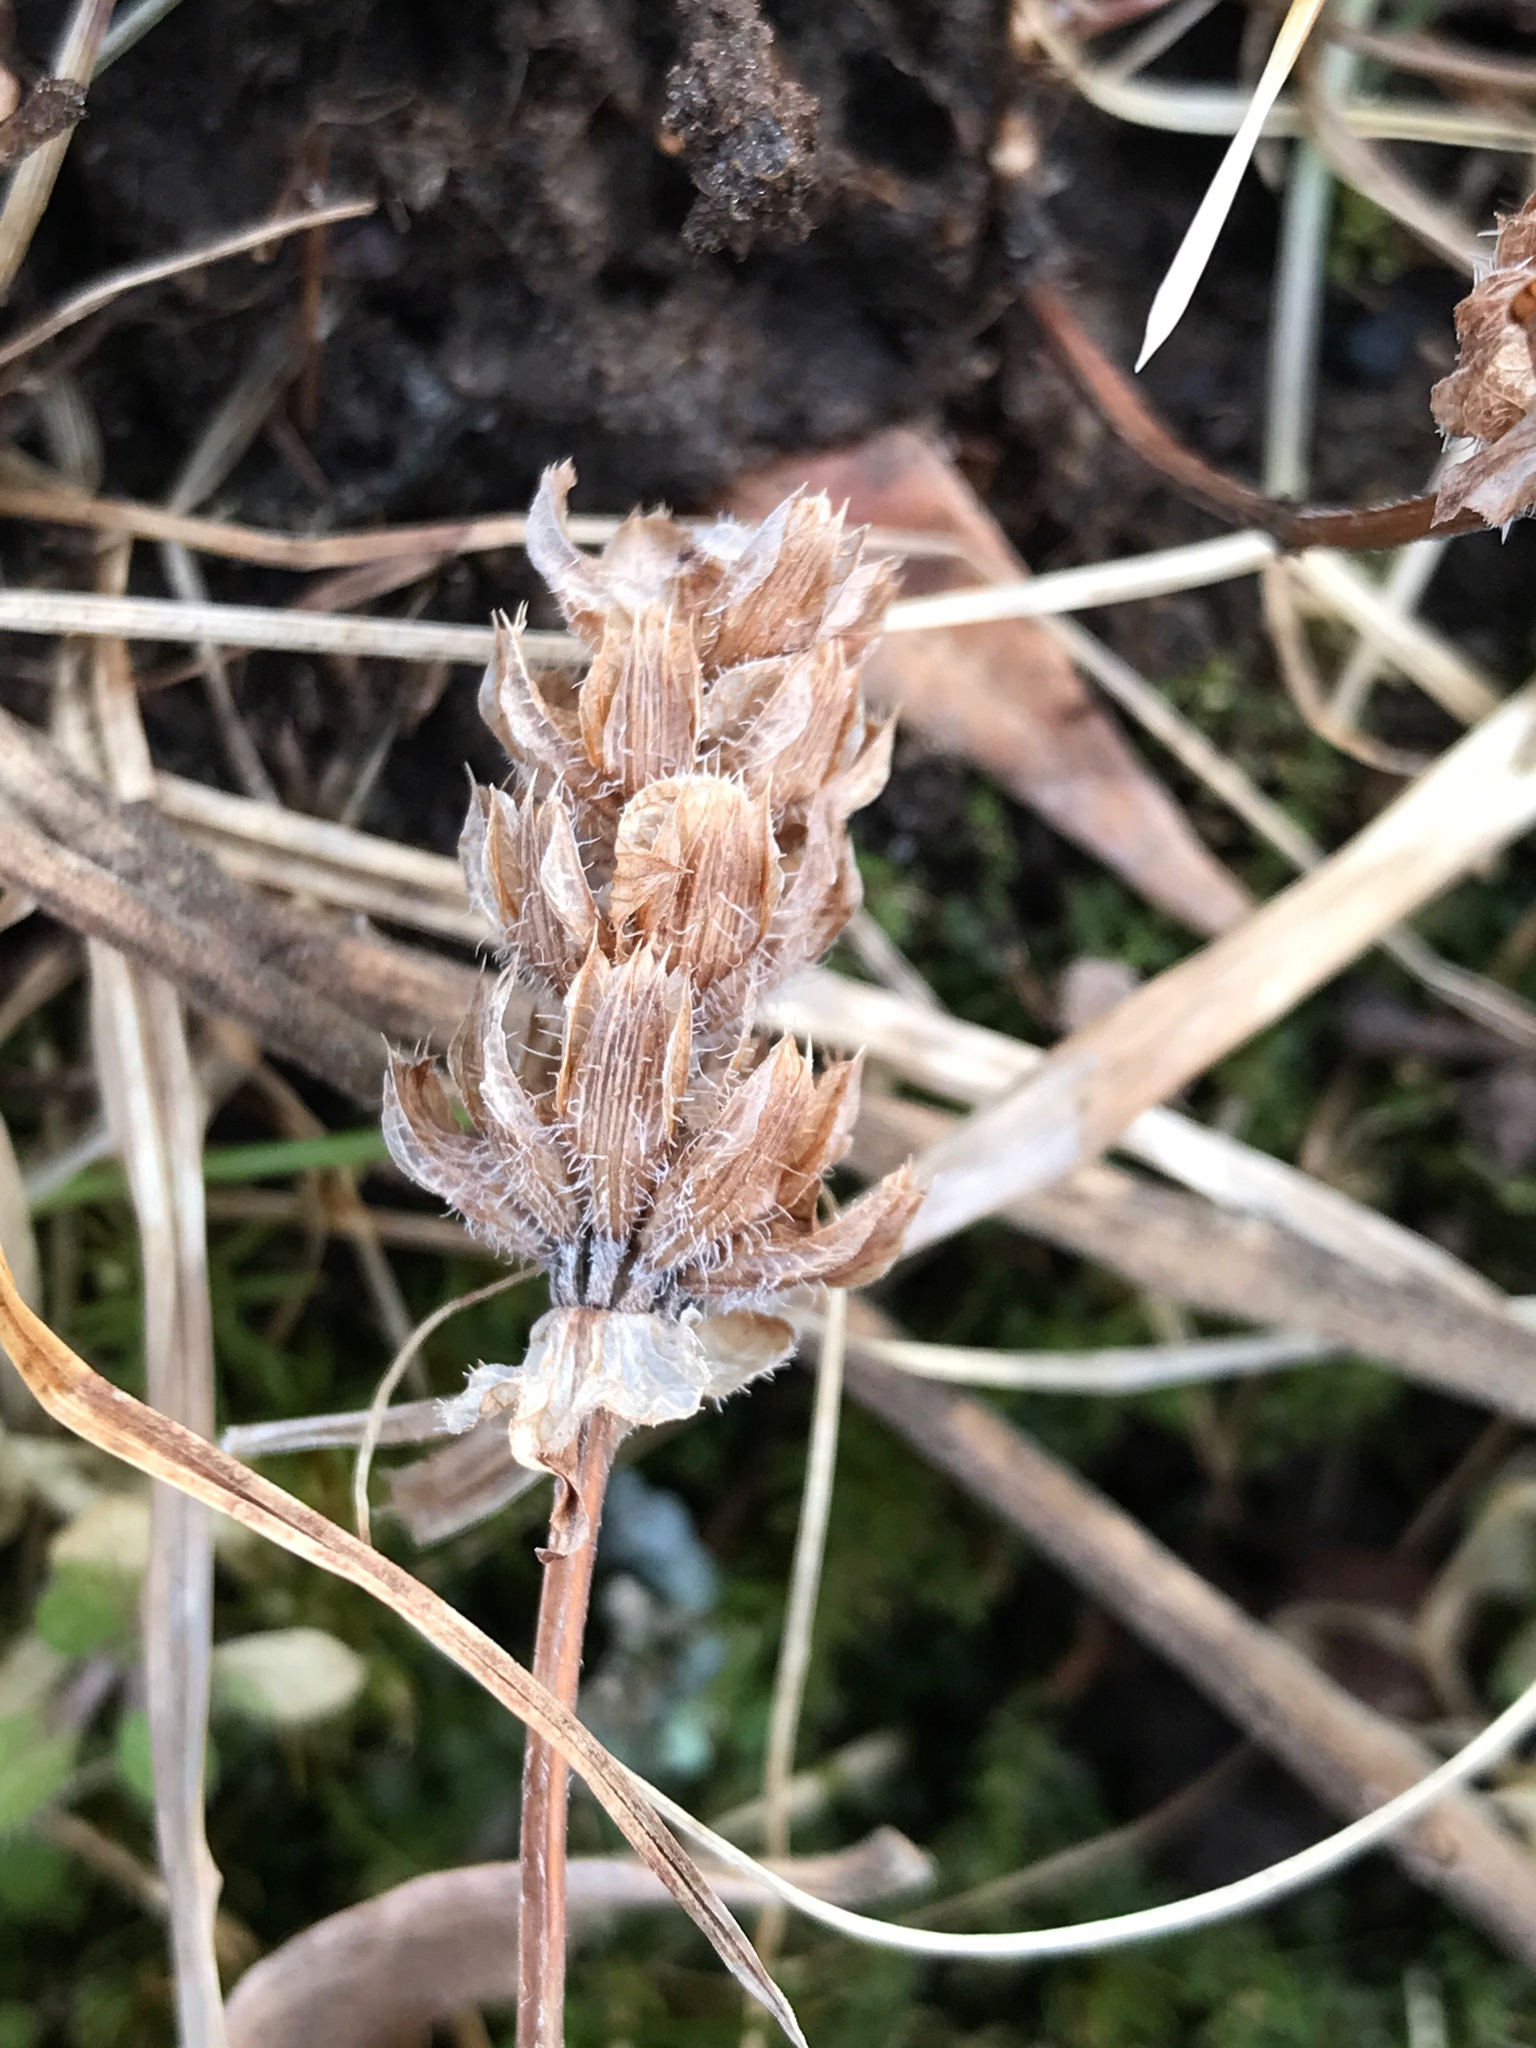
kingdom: Plantae
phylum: Tracheophyta
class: Magnoliopsida
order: Lamiales
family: Lamiaceae
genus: Prunella
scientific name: Prunella vulgaris
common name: Heal-all
